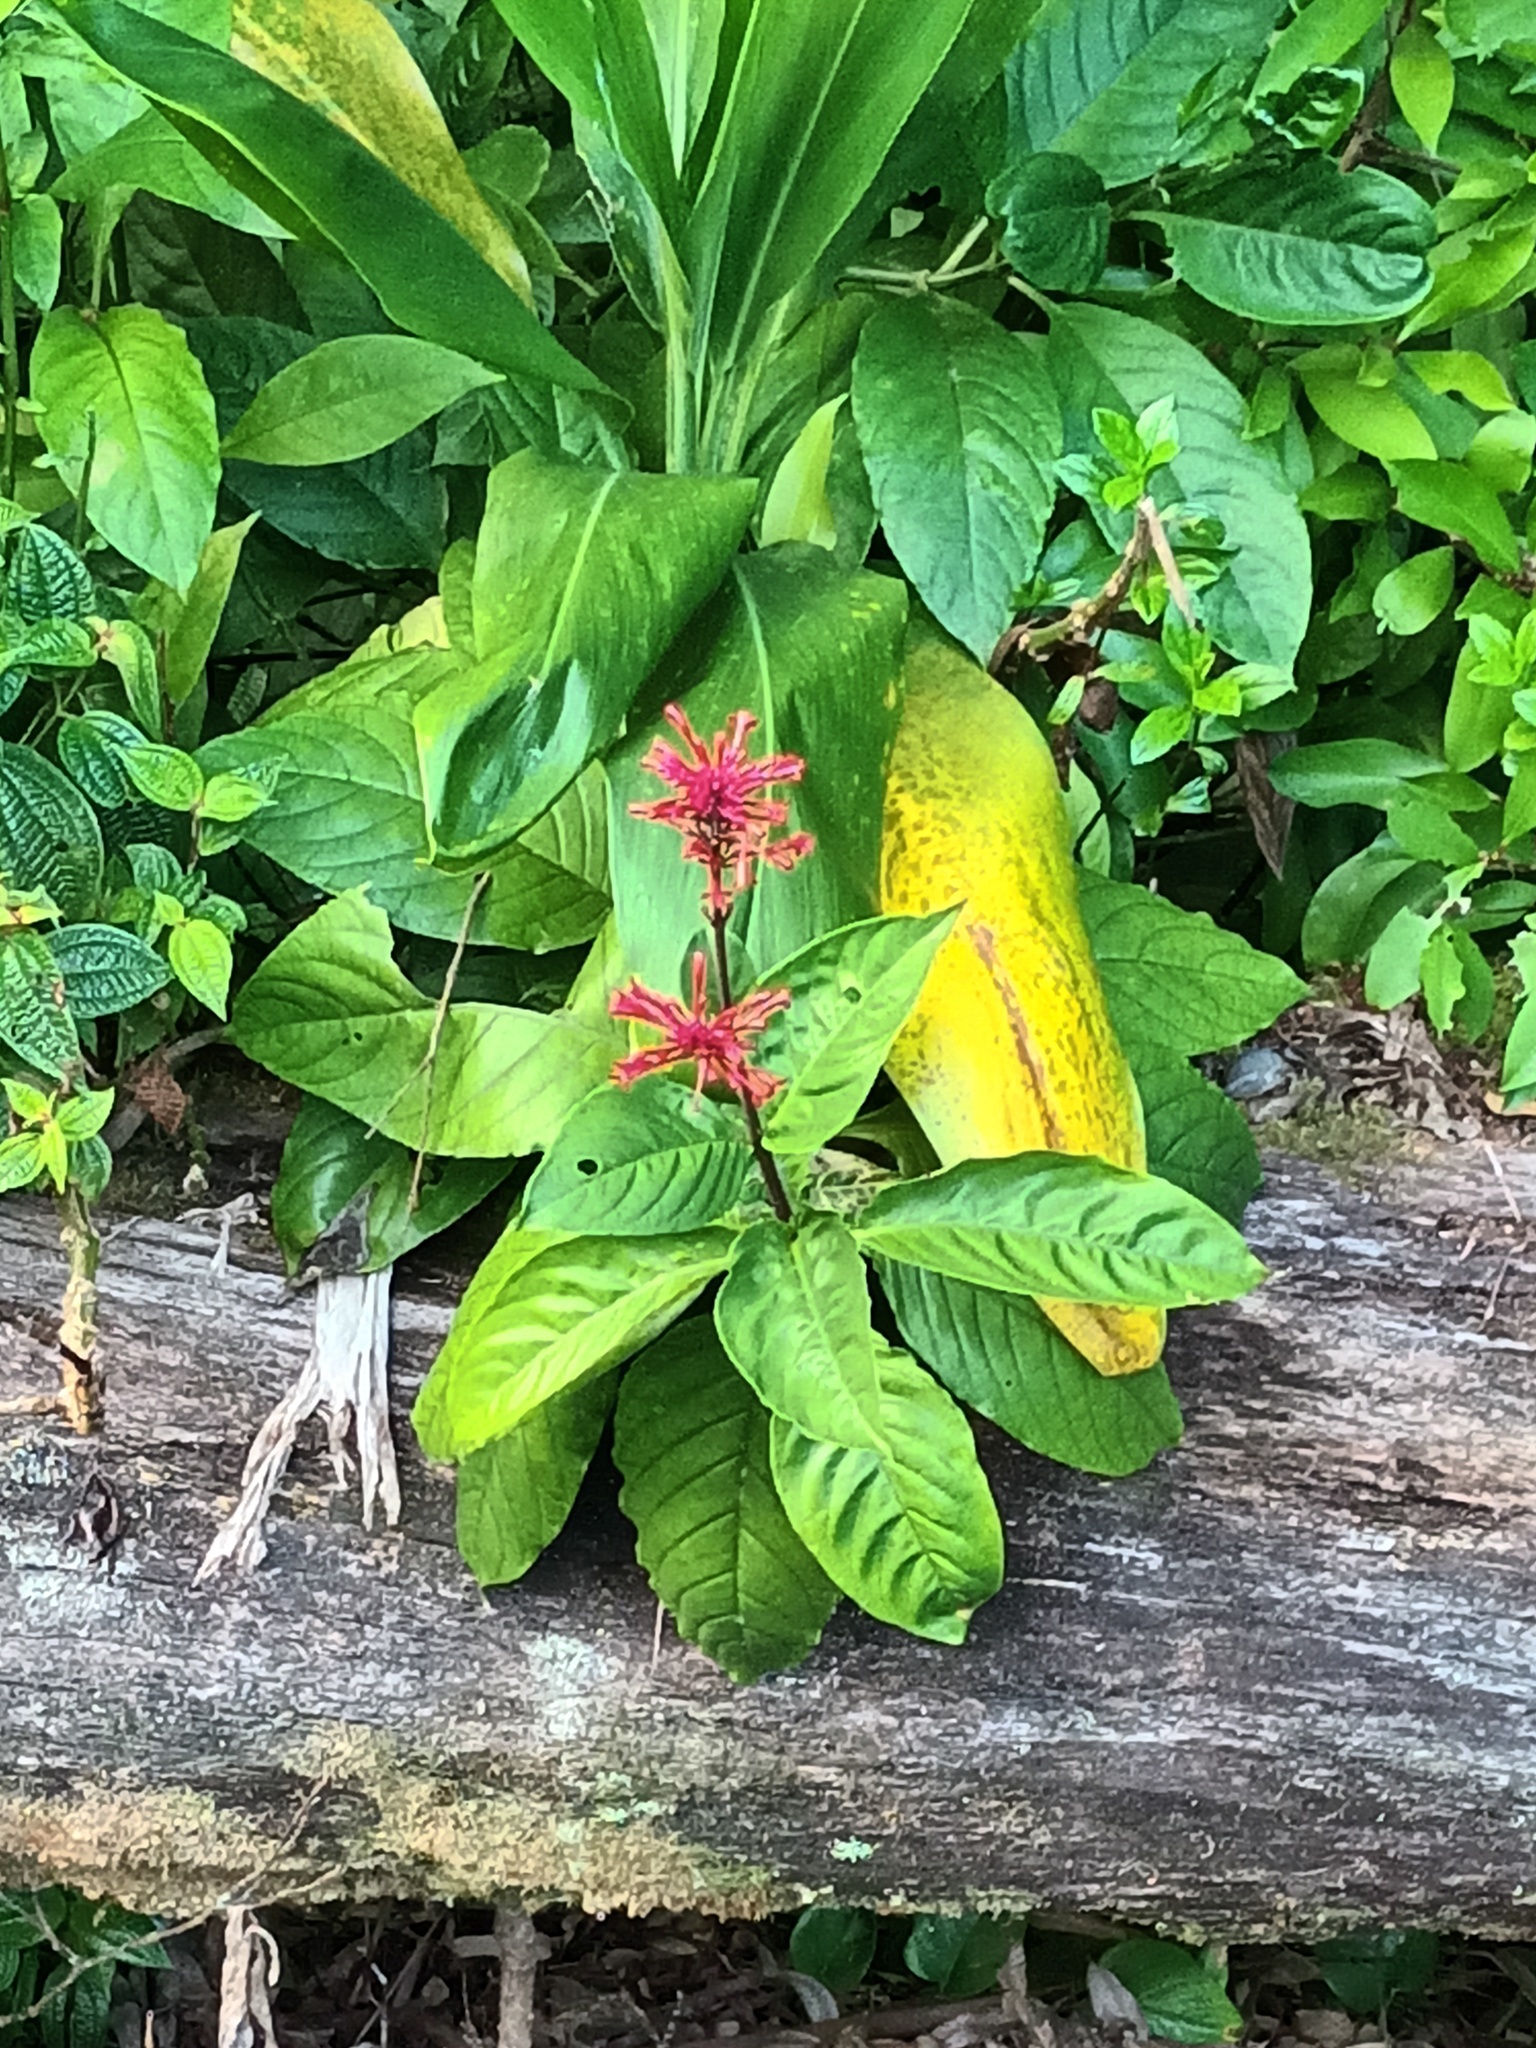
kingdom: Plantae
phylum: Tracheophyta
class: Magnoliopsida
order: Lamiales
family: Acanthaceae
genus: Odontonema
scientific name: Odontonema cuspidatum
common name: Mottled toothedthread
